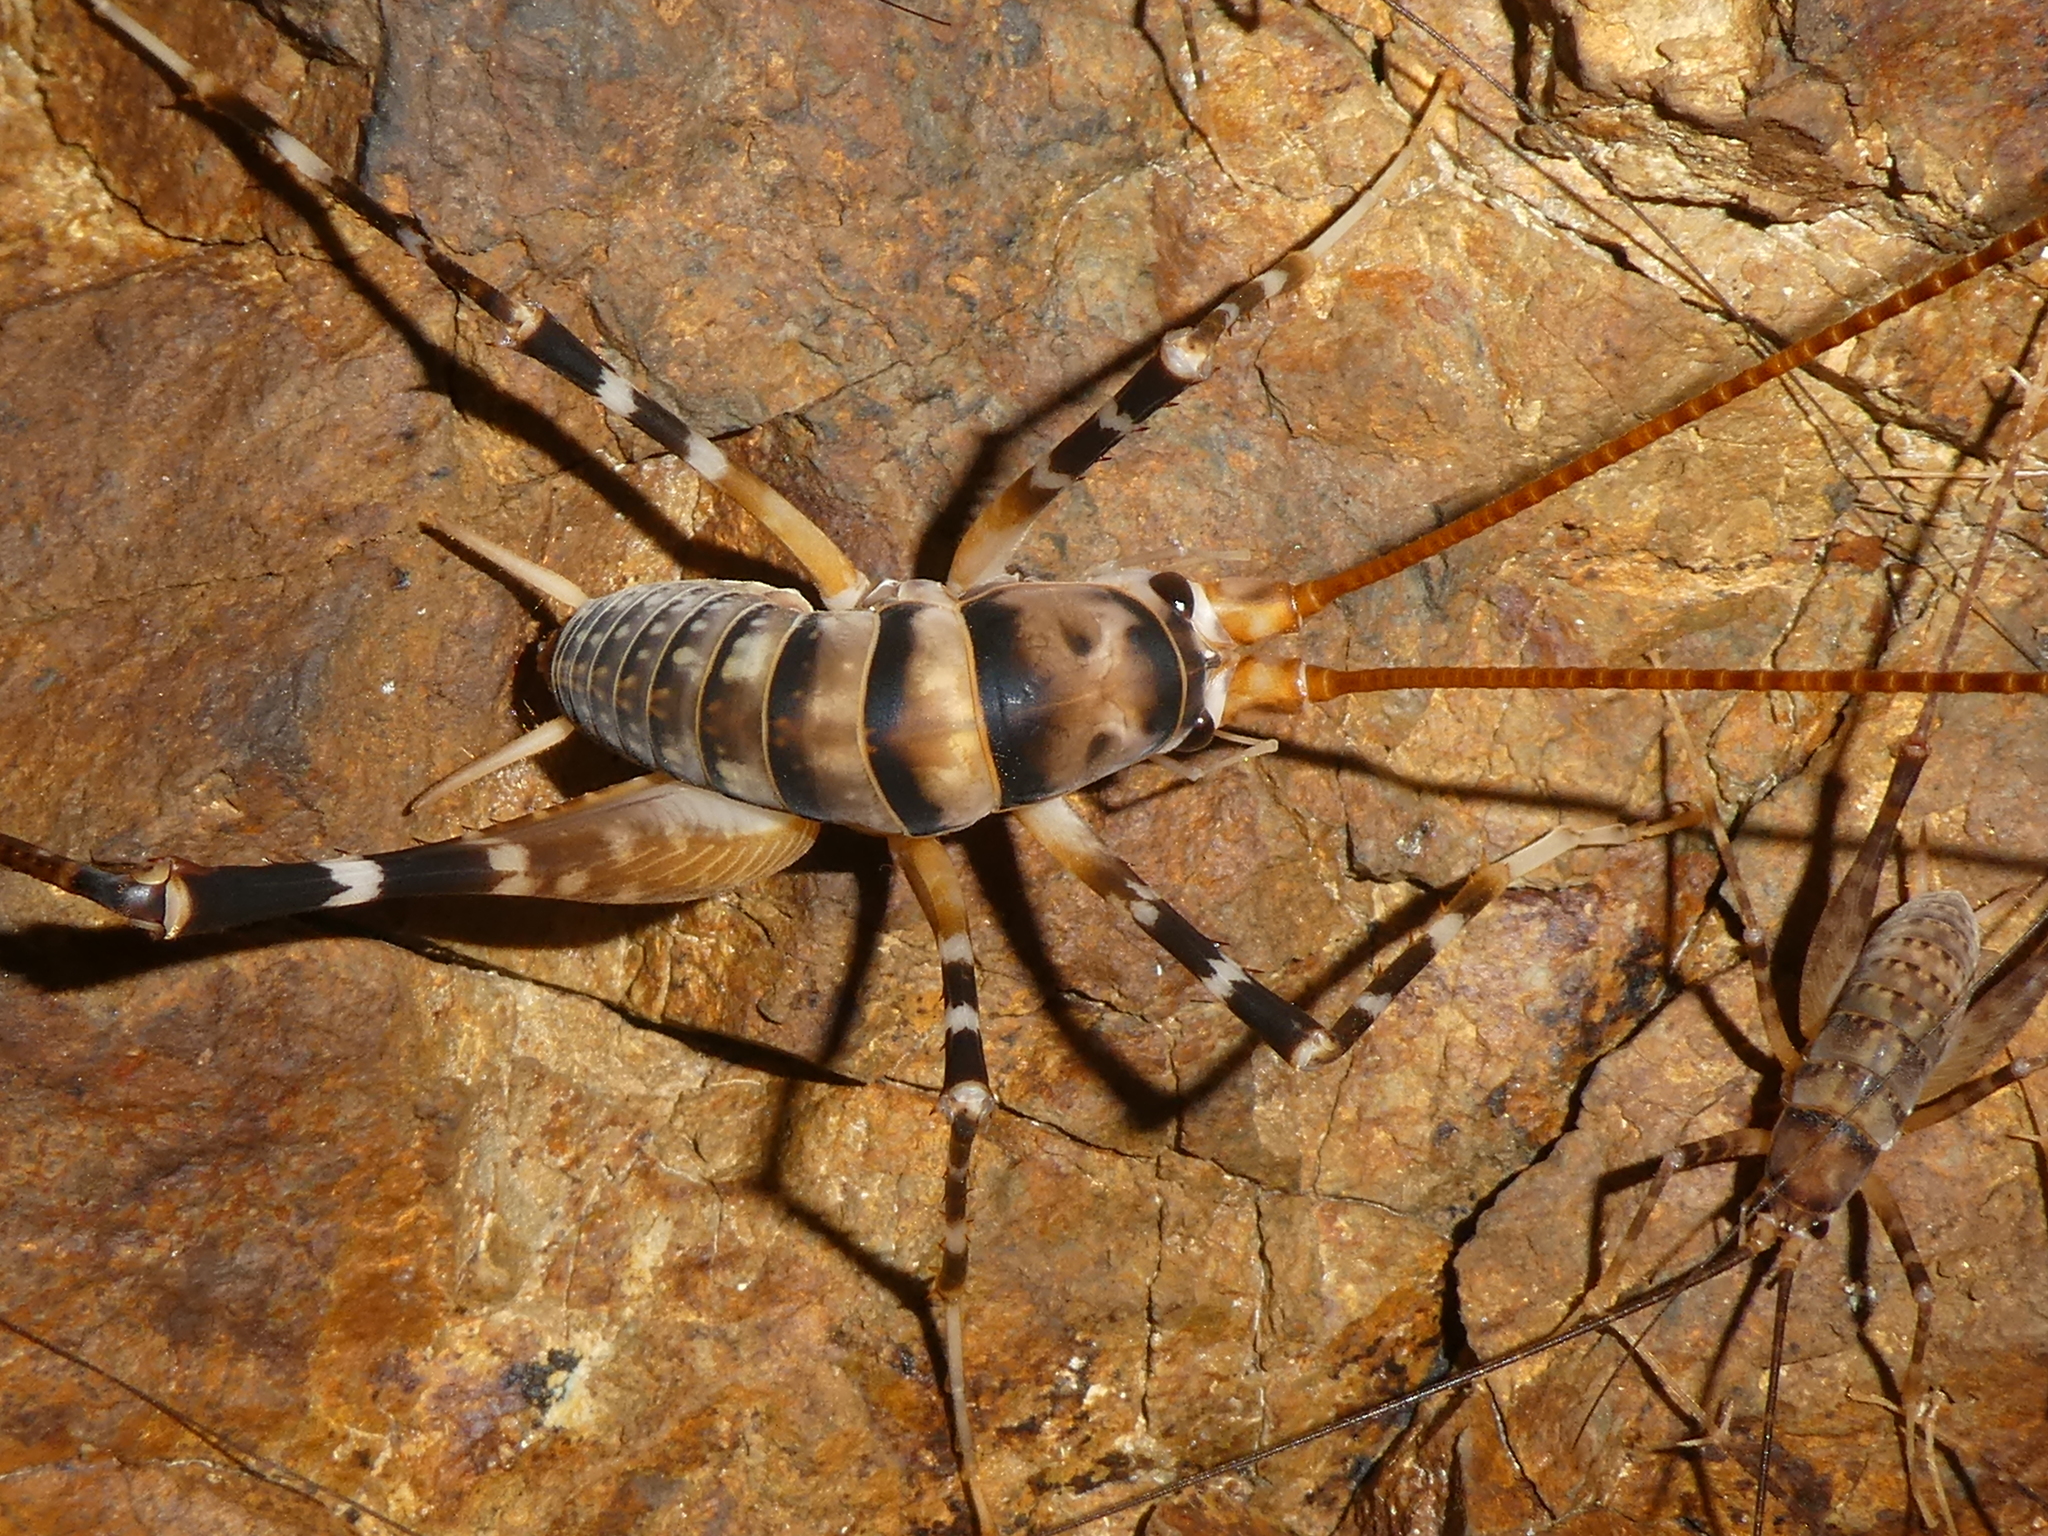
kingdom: Animalia
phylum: Arthropoda
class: Insecta
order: Orthoptera
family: Rhaphidophoridae
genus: Pachyrhamma
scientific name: Pachyrhamma edwardsii
